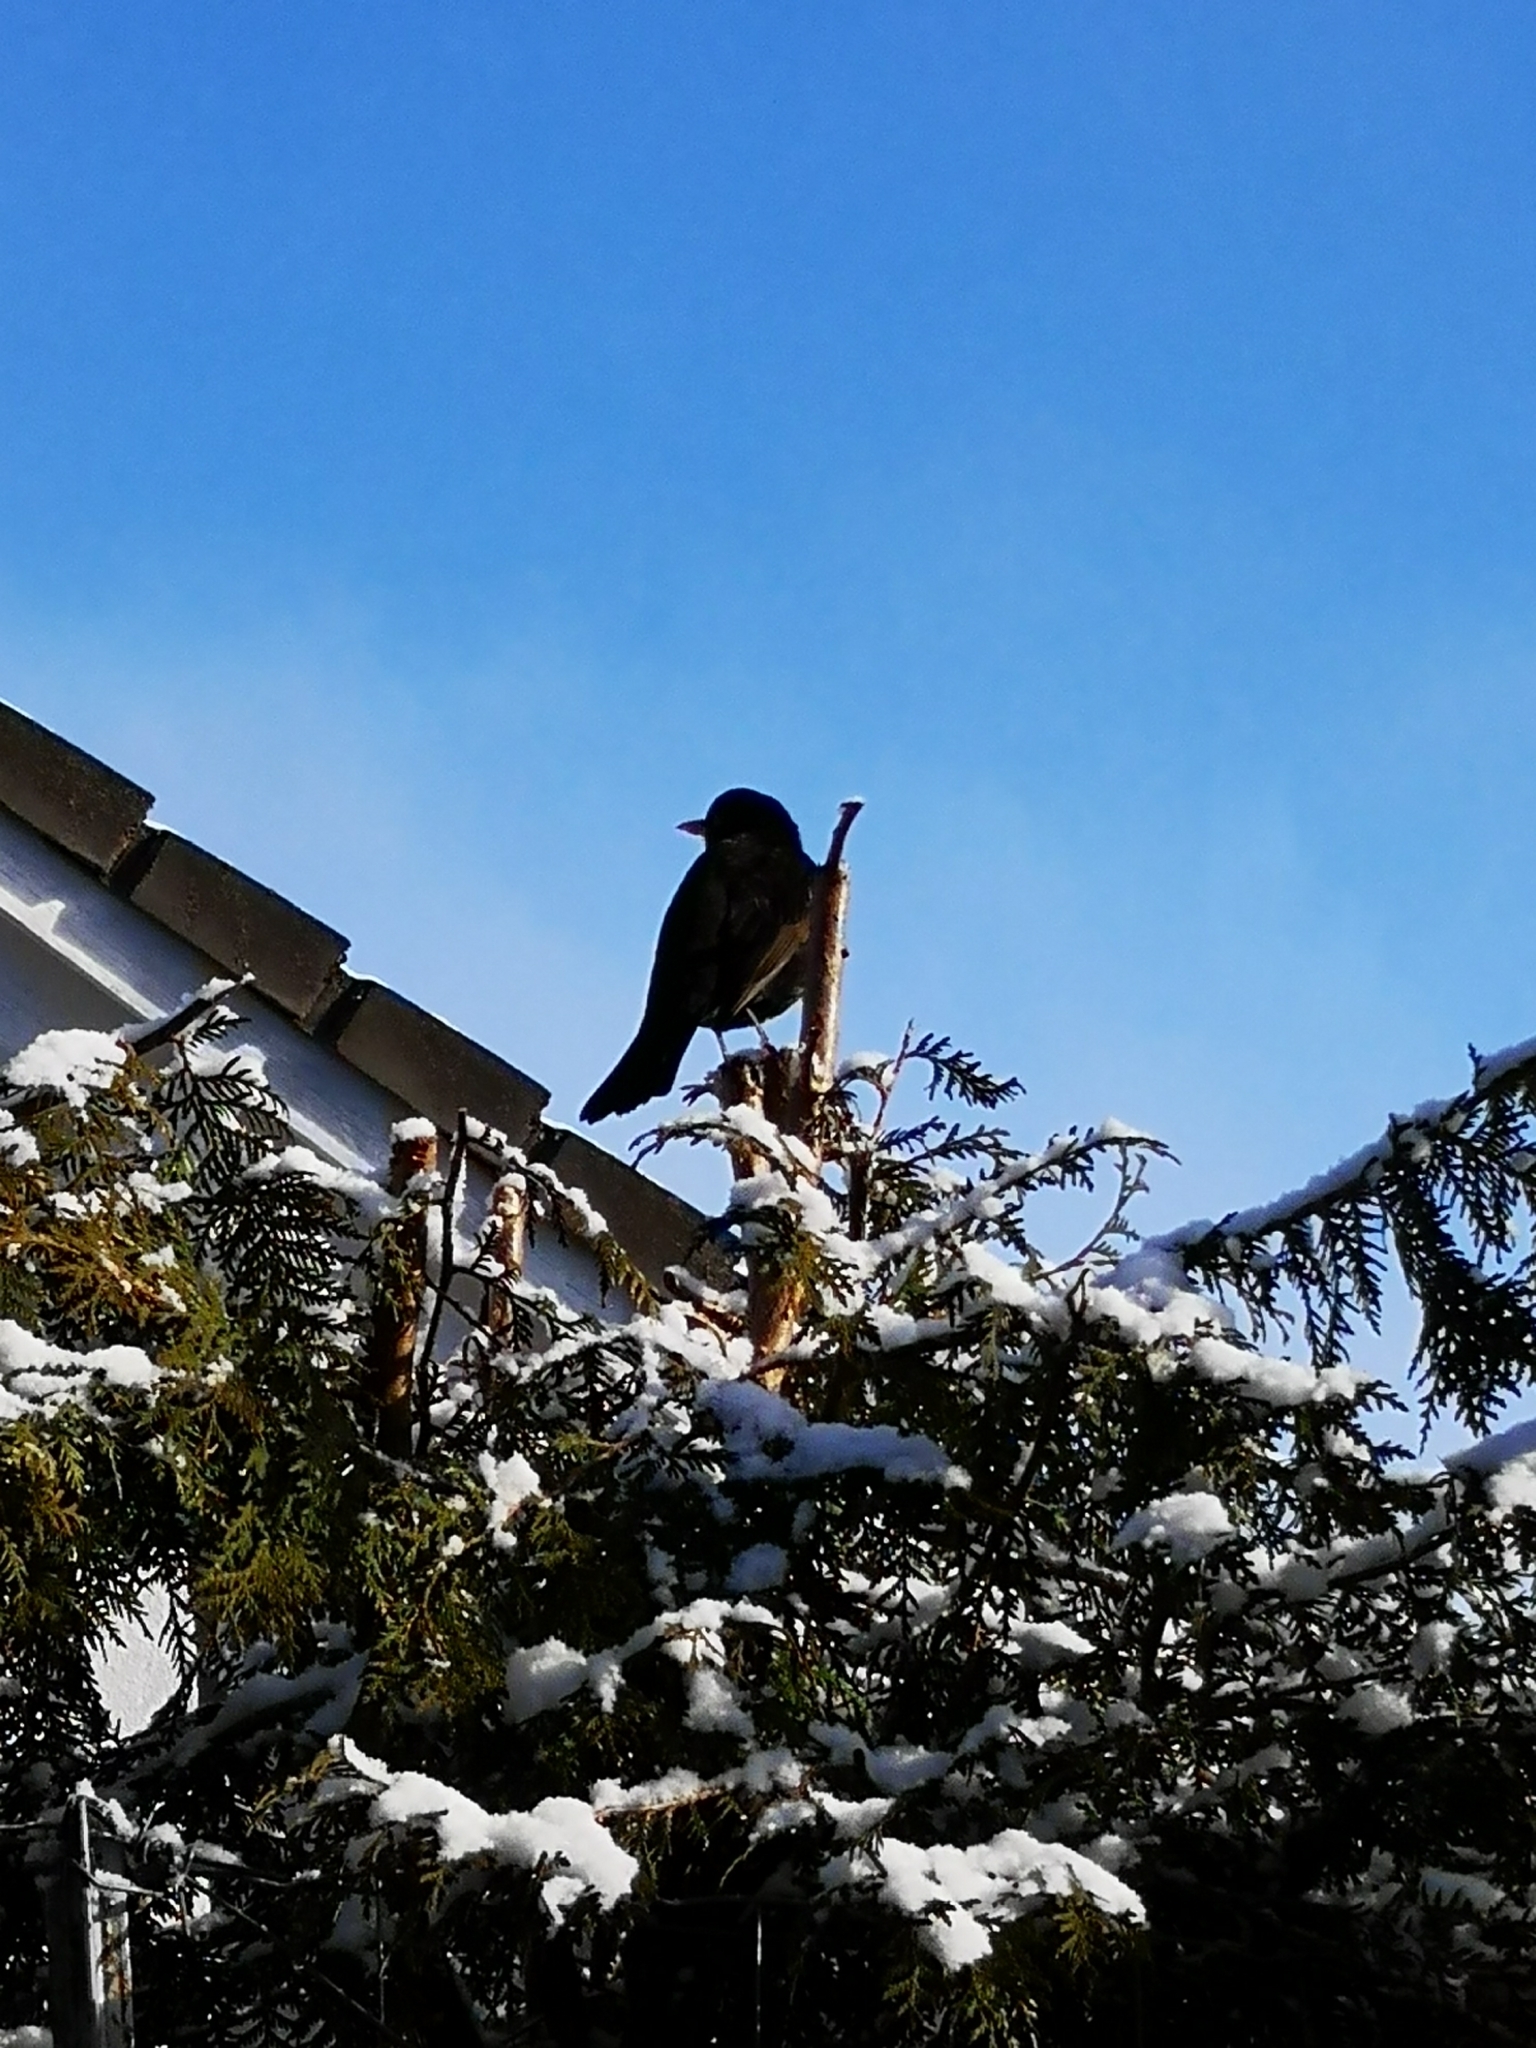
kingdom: Animalia
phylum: Chordata
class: Aves
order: Passeriformes
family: Turdidae
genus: Turdus
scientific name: Turdus merula
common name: Common blackbird
